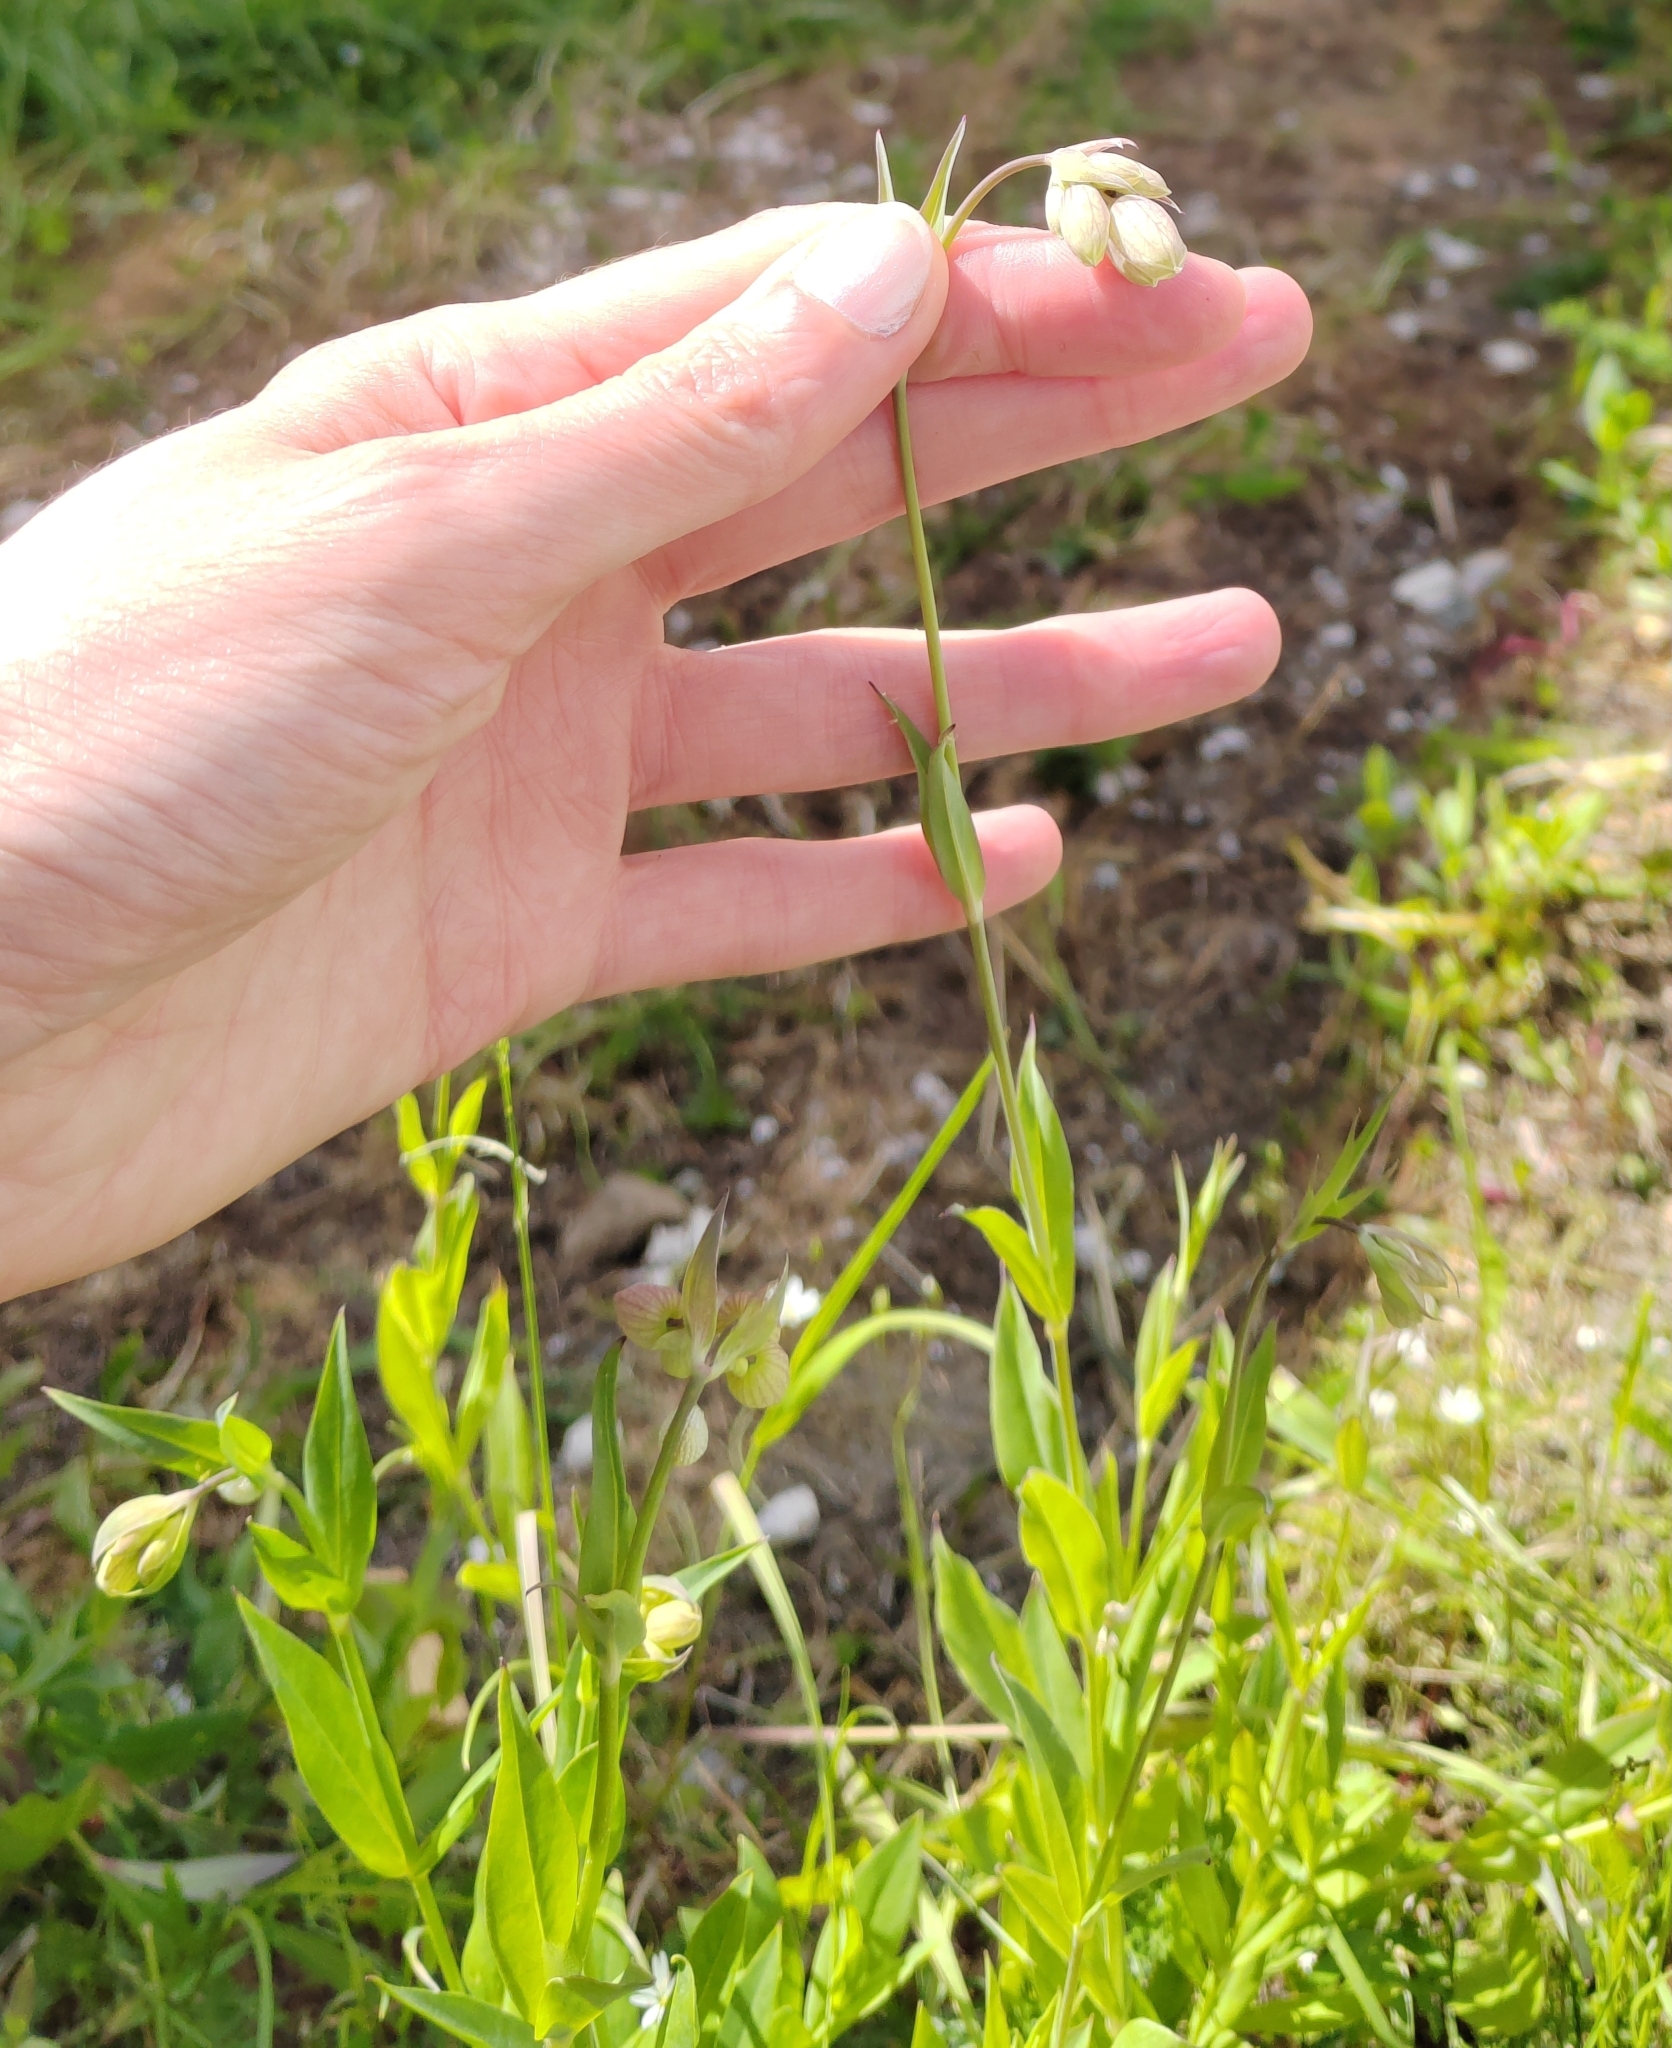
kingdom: Plantae
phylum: Tracheophyta
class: Magnoliopsida
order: Caryophyllales
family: Caryophyllaceae
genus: Silene
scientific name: Silene vulgaris
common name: Bladder campion
